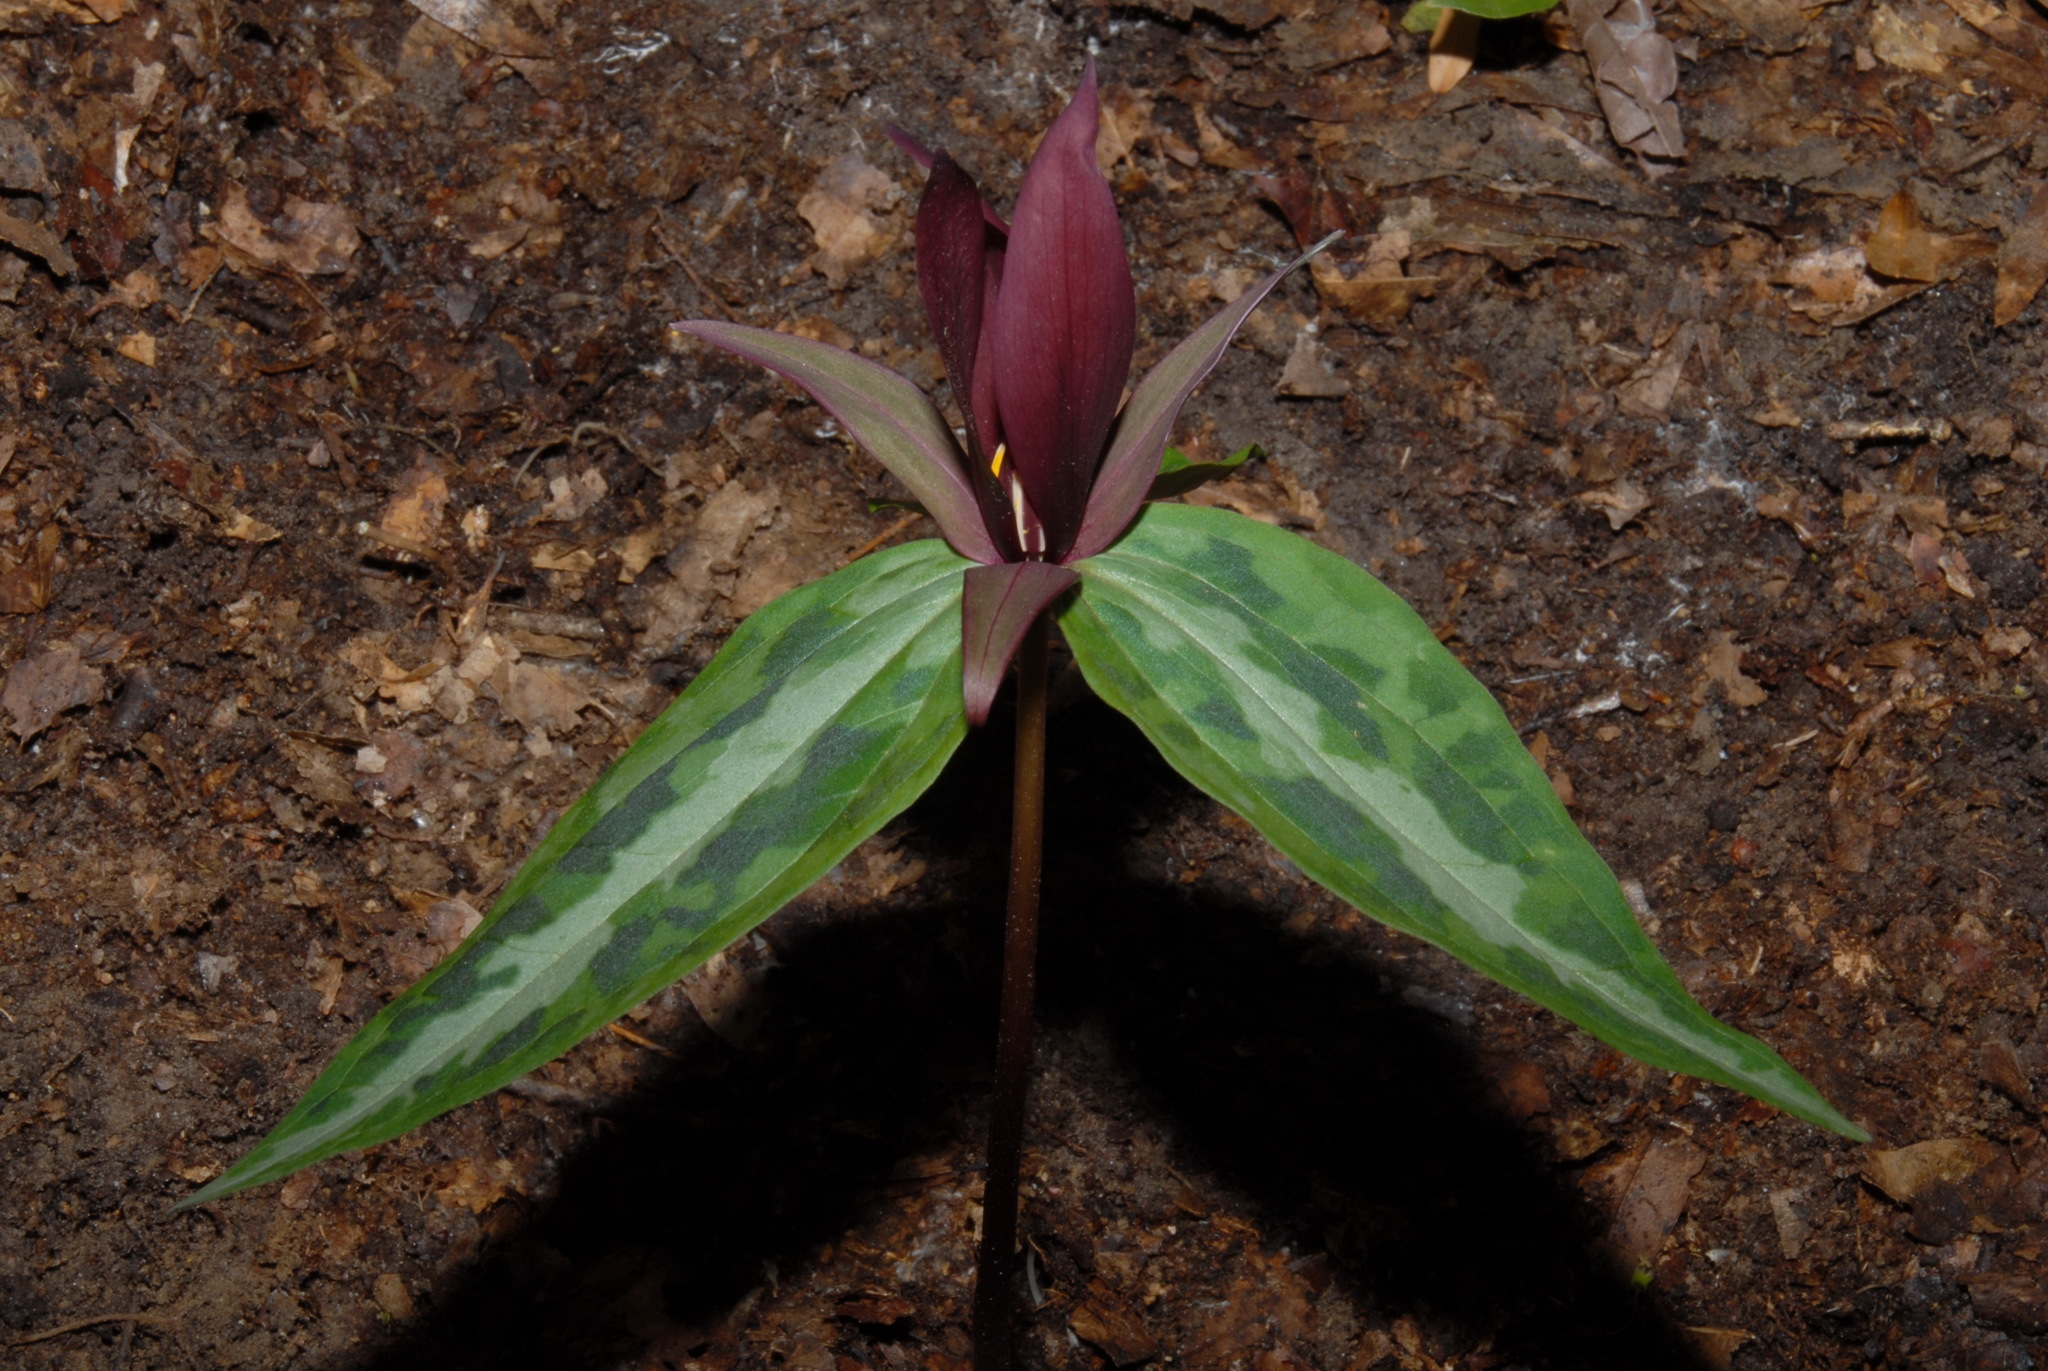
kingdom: Plantae
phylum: Tracheophyta
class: Liliopsida
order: Liliales
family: Melanthiaceae
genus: Trillium
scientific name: Trillium decipiens
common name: Chattahoochee river trillium
